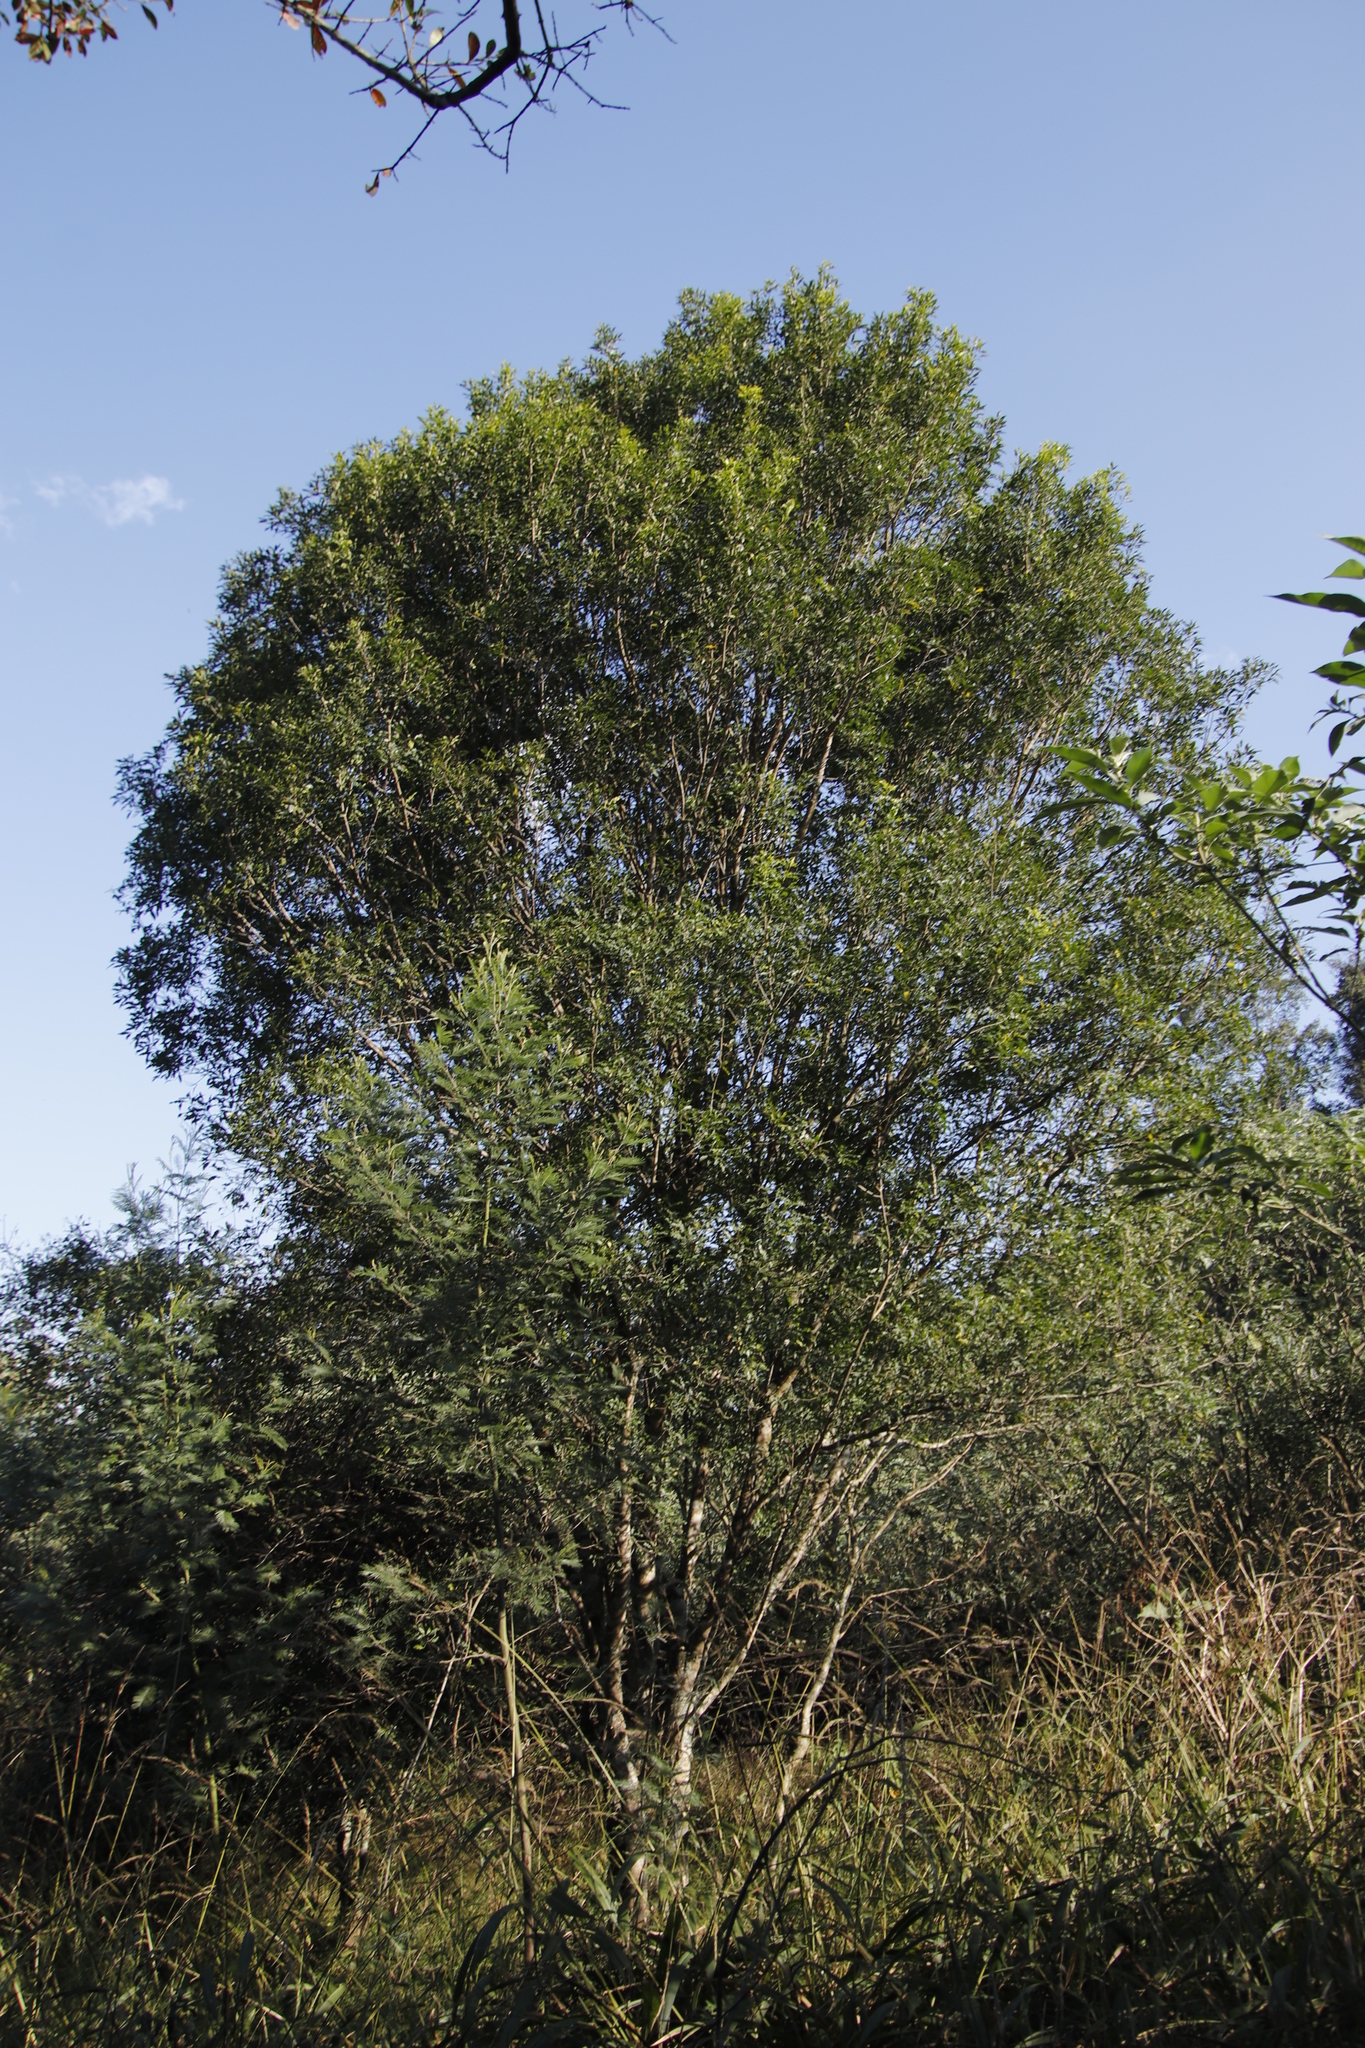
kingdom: Plantae
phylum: Tracheophyta
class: Magnoliopsida
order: Sapindales
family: Rutaceae
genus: Vepris
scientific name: Vepris lanceolata
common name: White ironwood
